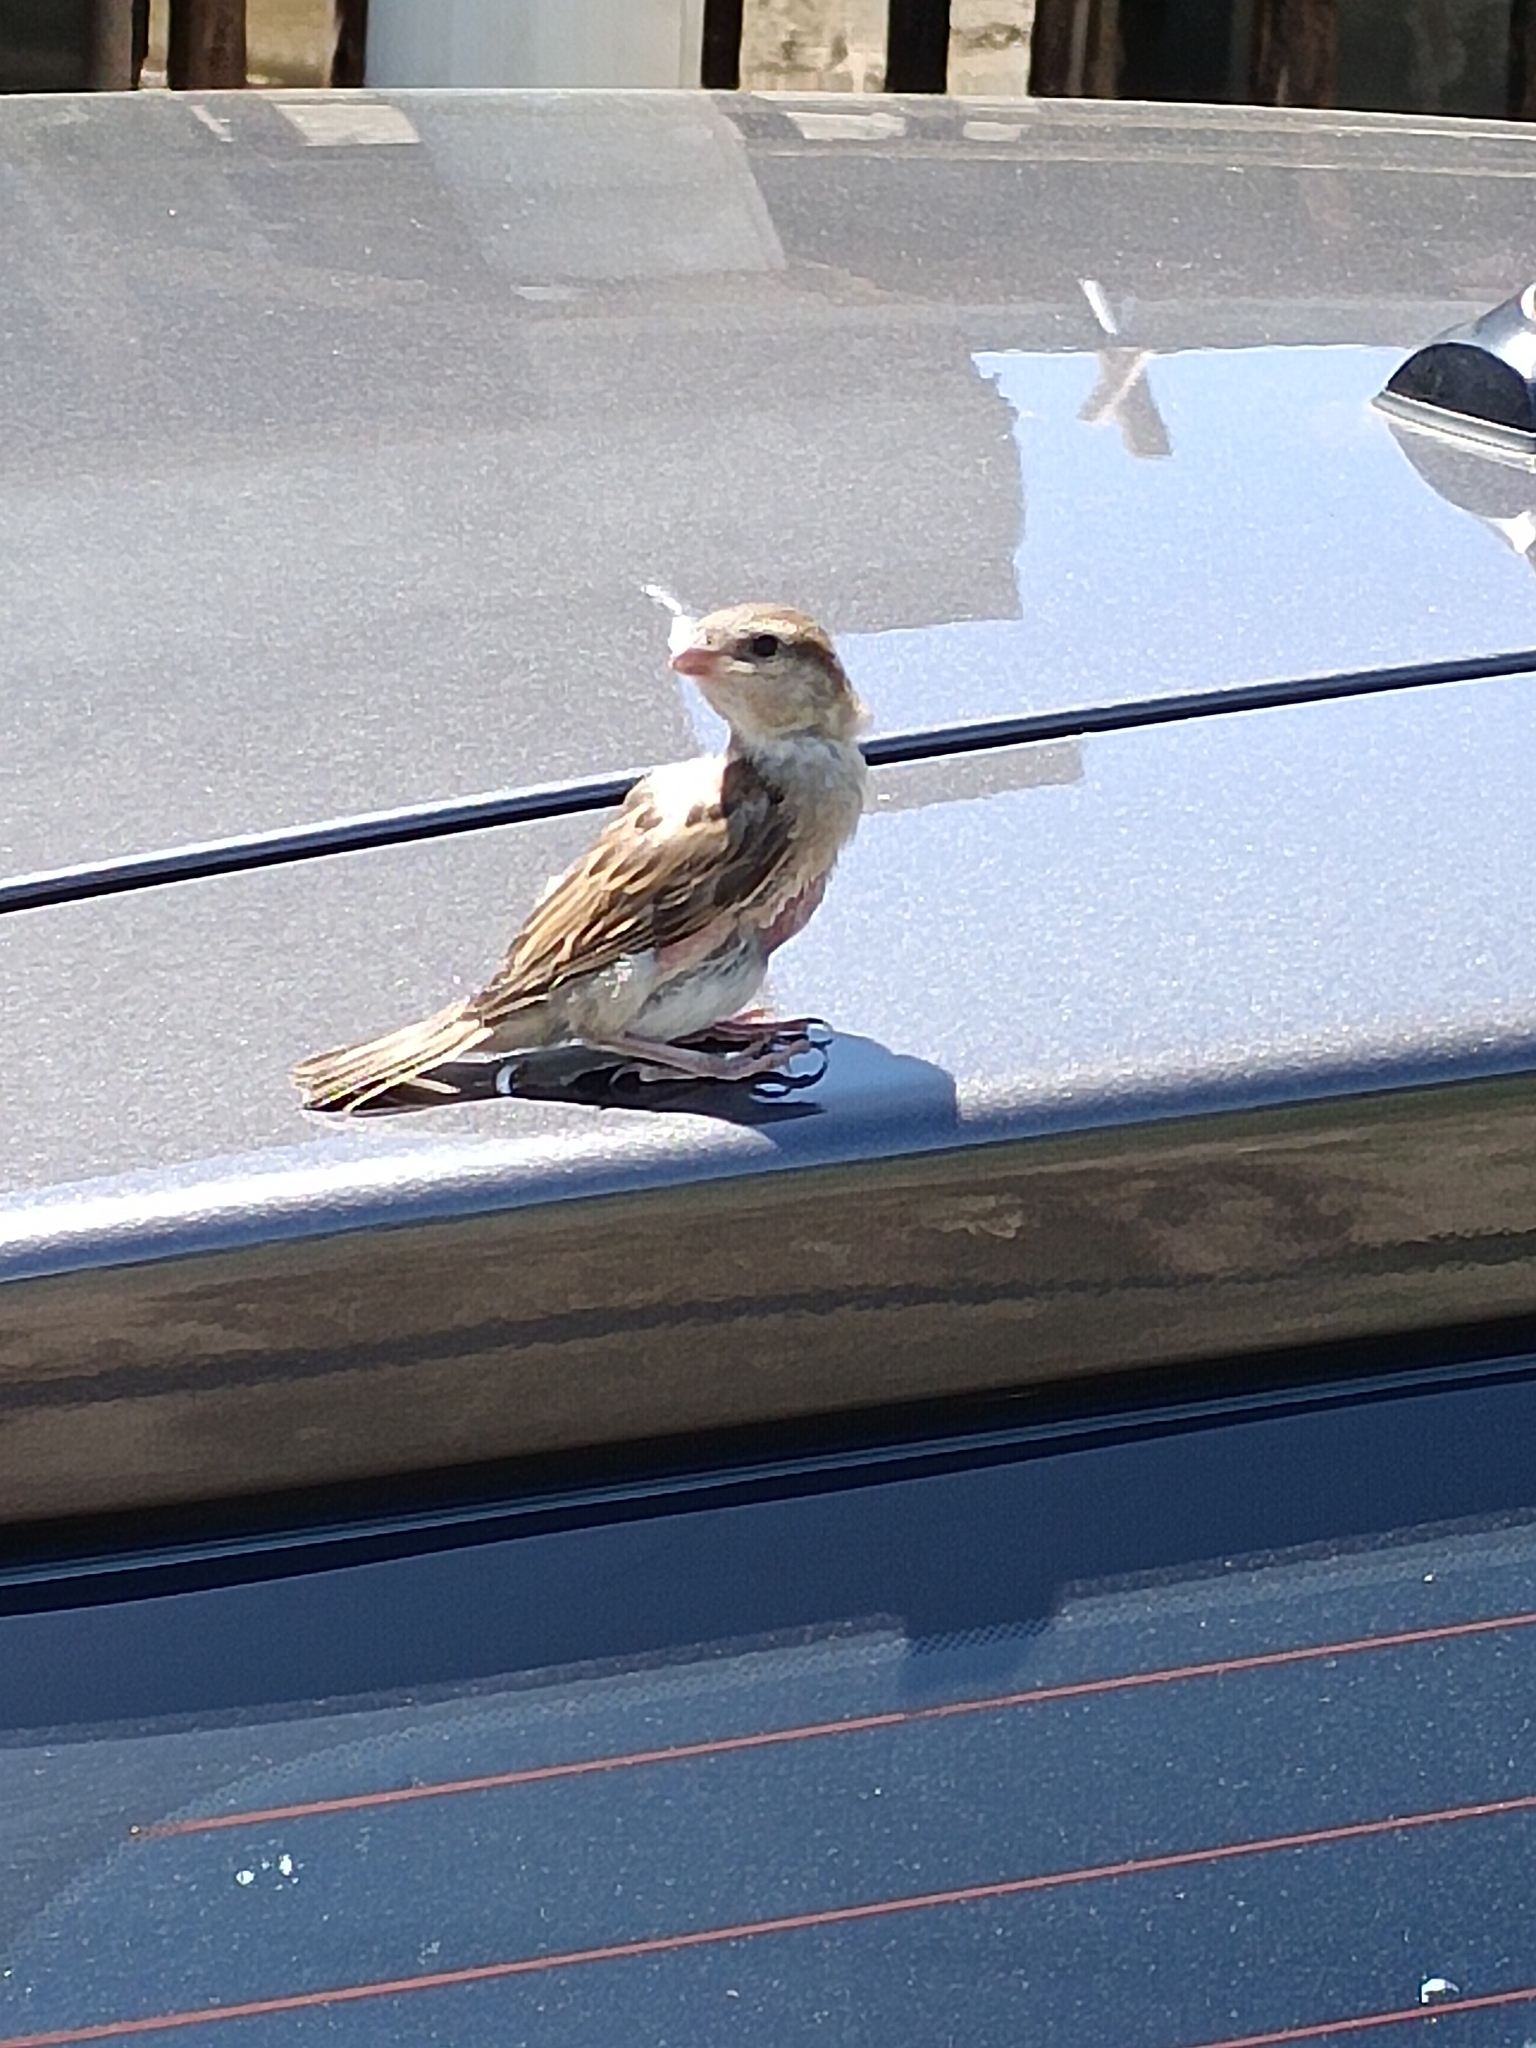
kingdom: Animalia
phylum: Chordata
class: Aves
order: Passeriformes
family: Passeridae
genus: Passer
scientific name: Passer domesticus
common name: House sparrow
